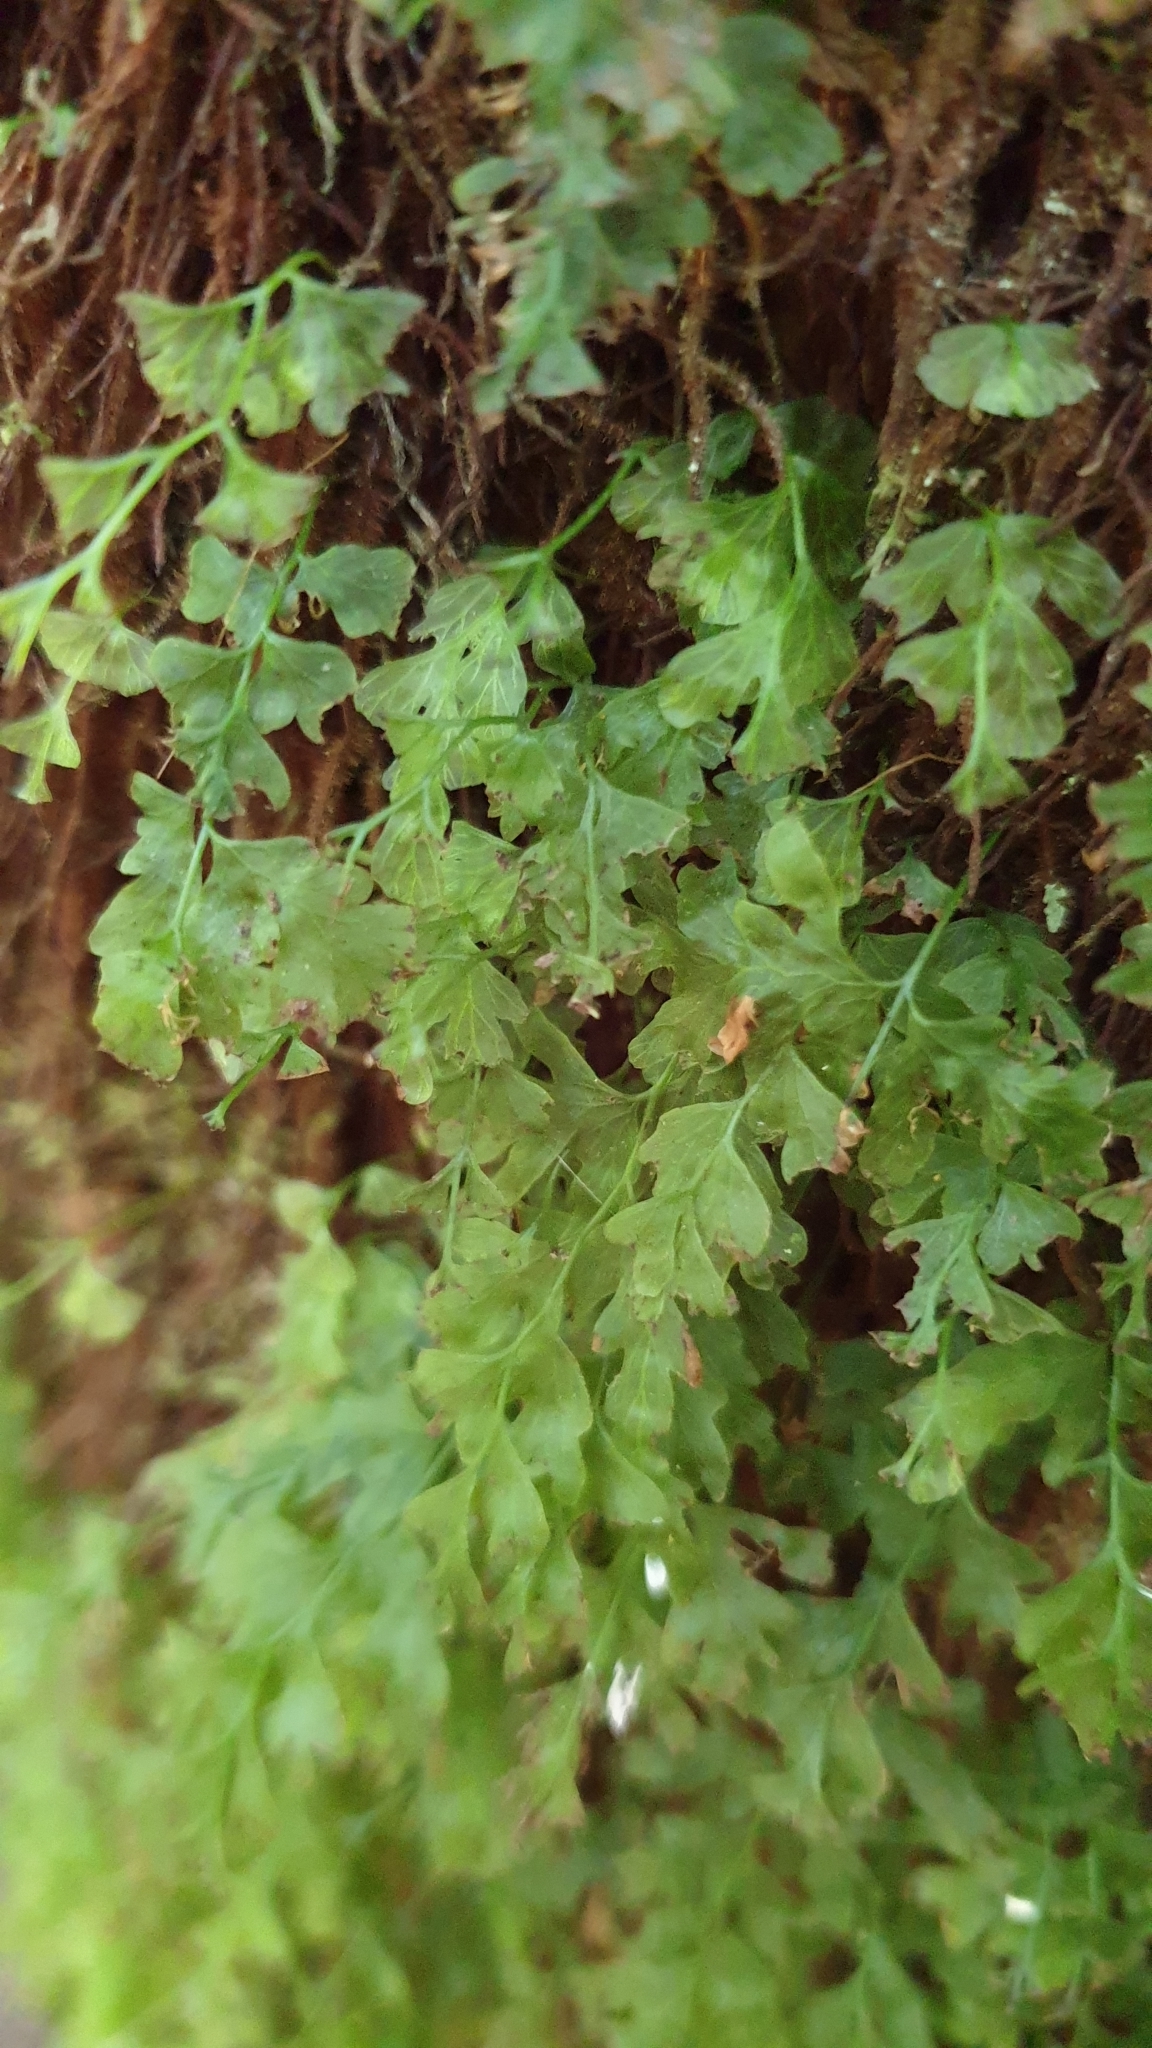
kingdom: Plantae
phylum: Tracheophyta
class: Polypodiopsida
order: Hymenophyllales
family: Hymenophyllaceae
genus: Polyphlebium
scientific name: Polyphlebium venosum
